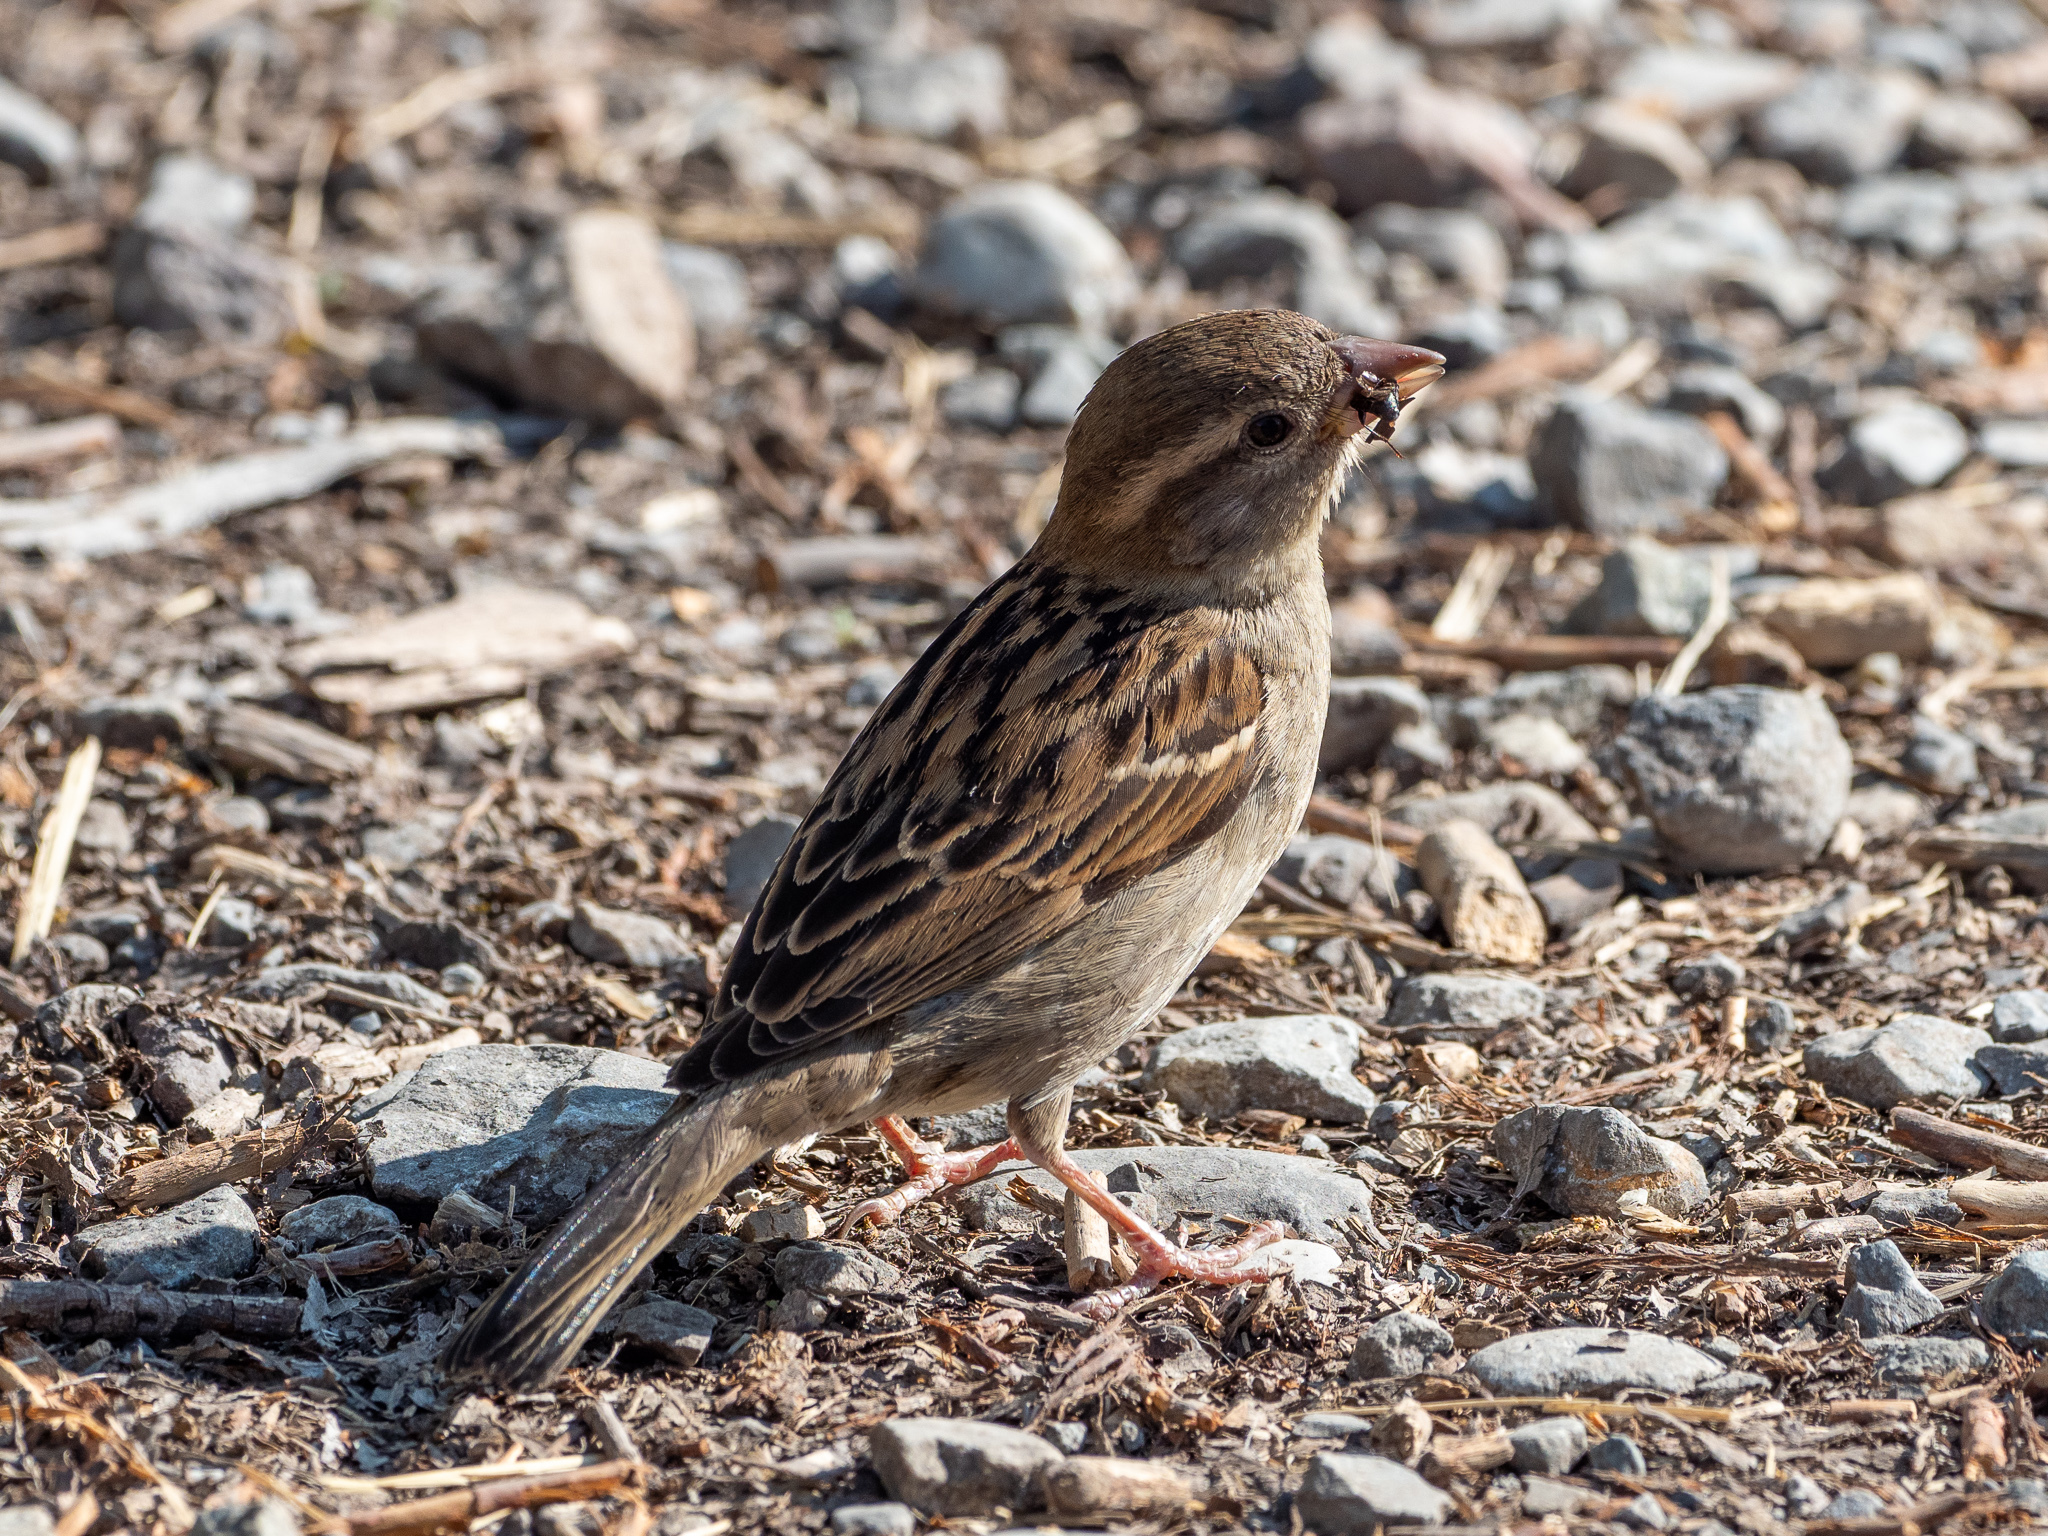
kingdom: Animalia
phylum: Chordata
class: Aves
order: Passeriformes
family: Passeridae
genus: Passer
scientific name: Passer domesticus
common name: House sparrow
